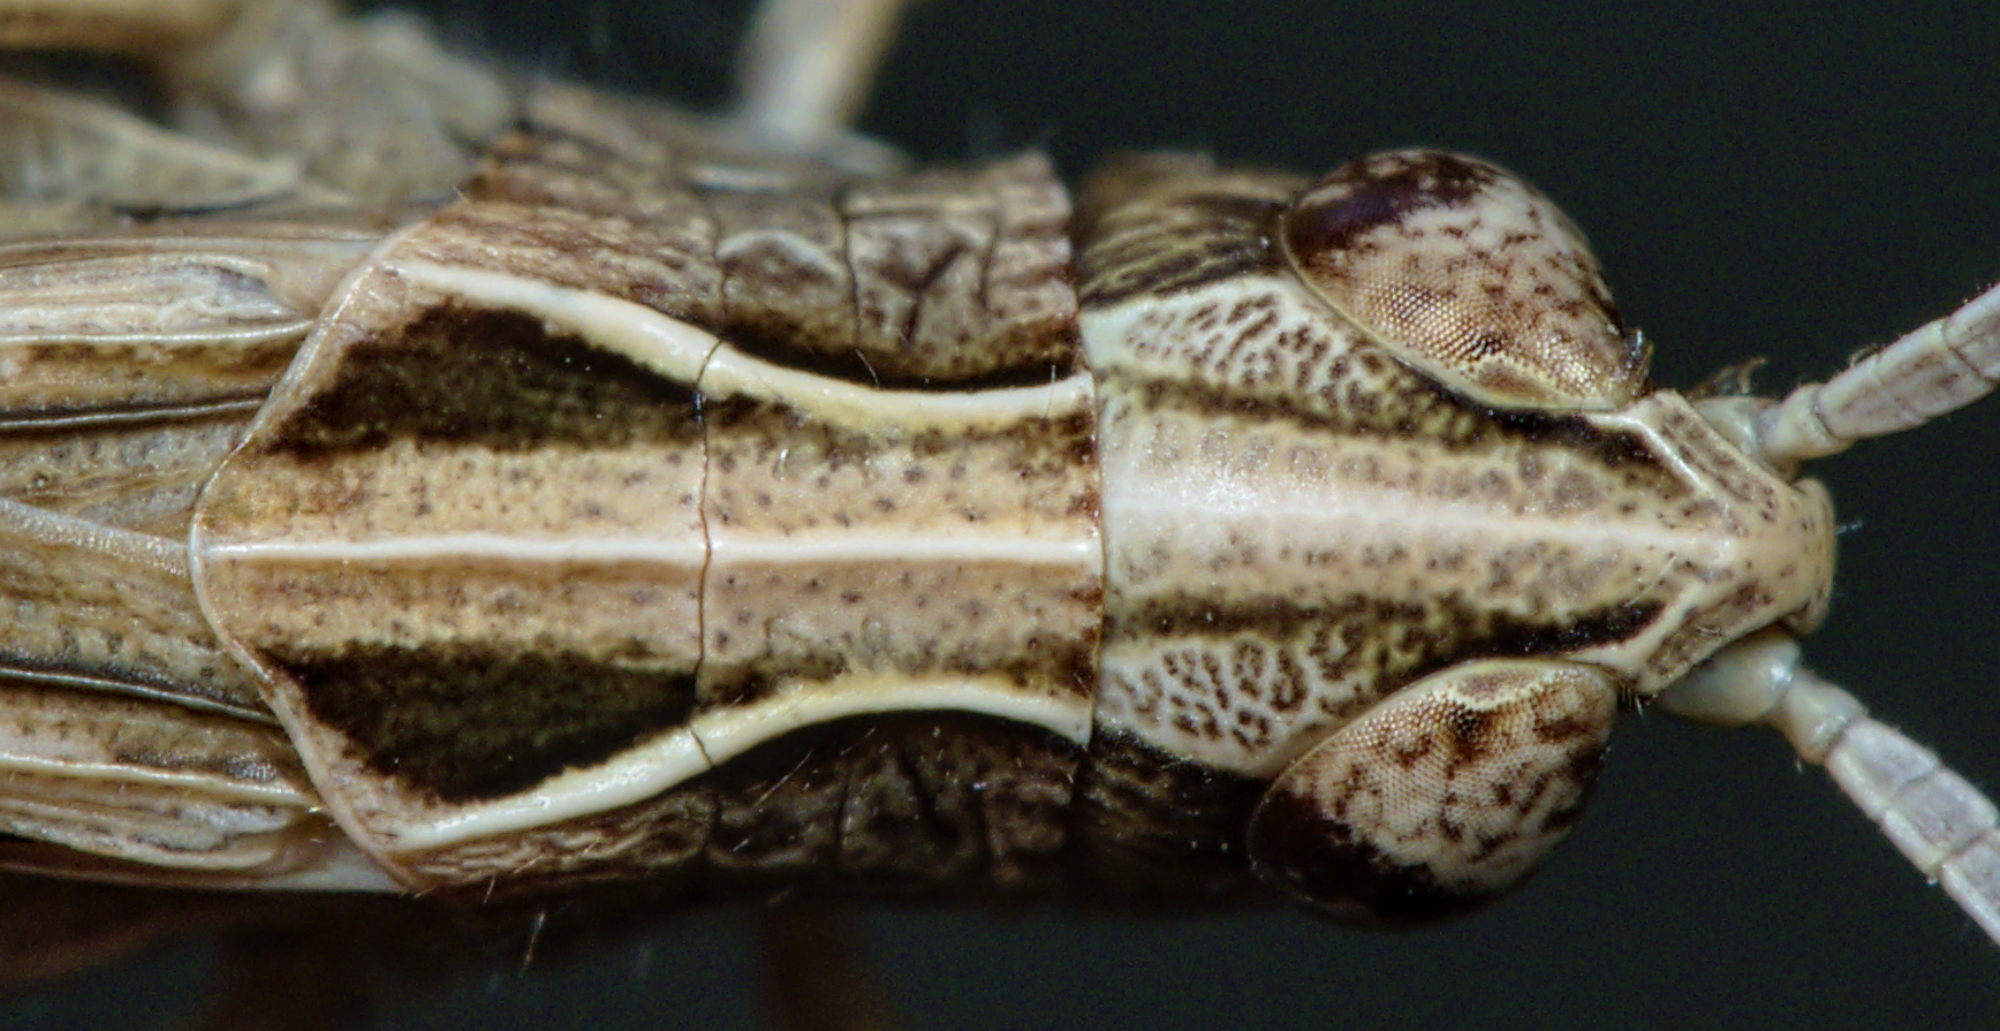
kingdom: Animalia
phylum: Arthropoda
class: Insecta
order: Orthoptera
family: Acrididae
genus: Omocestus
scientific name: Omocestus rufipes
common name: Woodland grasshopper
